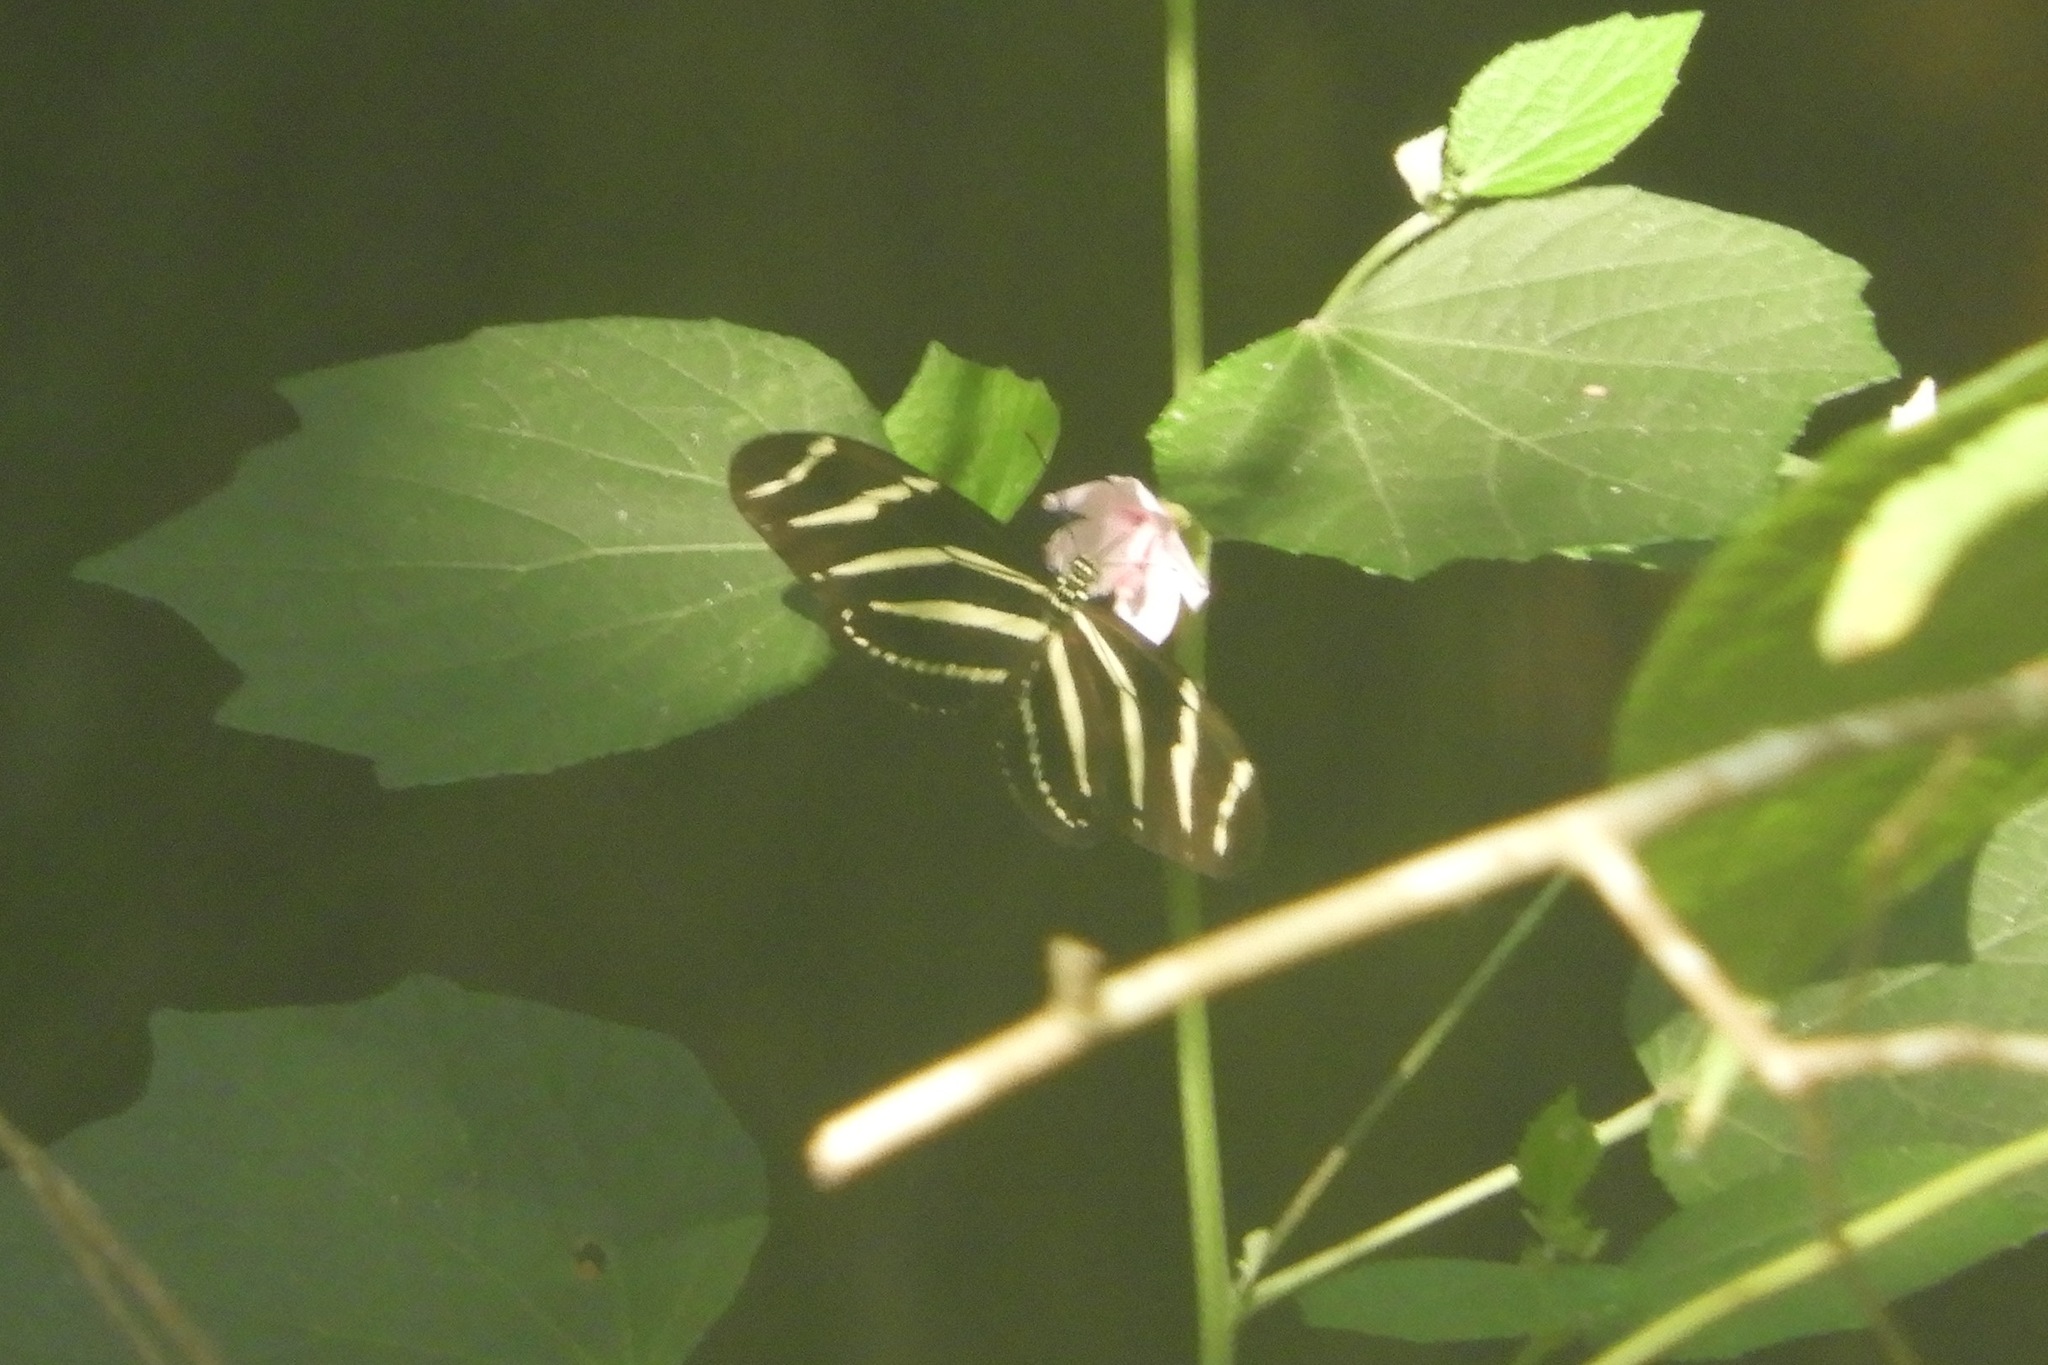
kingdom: Animalia
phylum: Arthropoda
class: Insecta
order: Lepidoptera
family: Nymphalidae
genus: Heliconius
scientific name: Heliconius charithonia
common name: Zebra long wing
